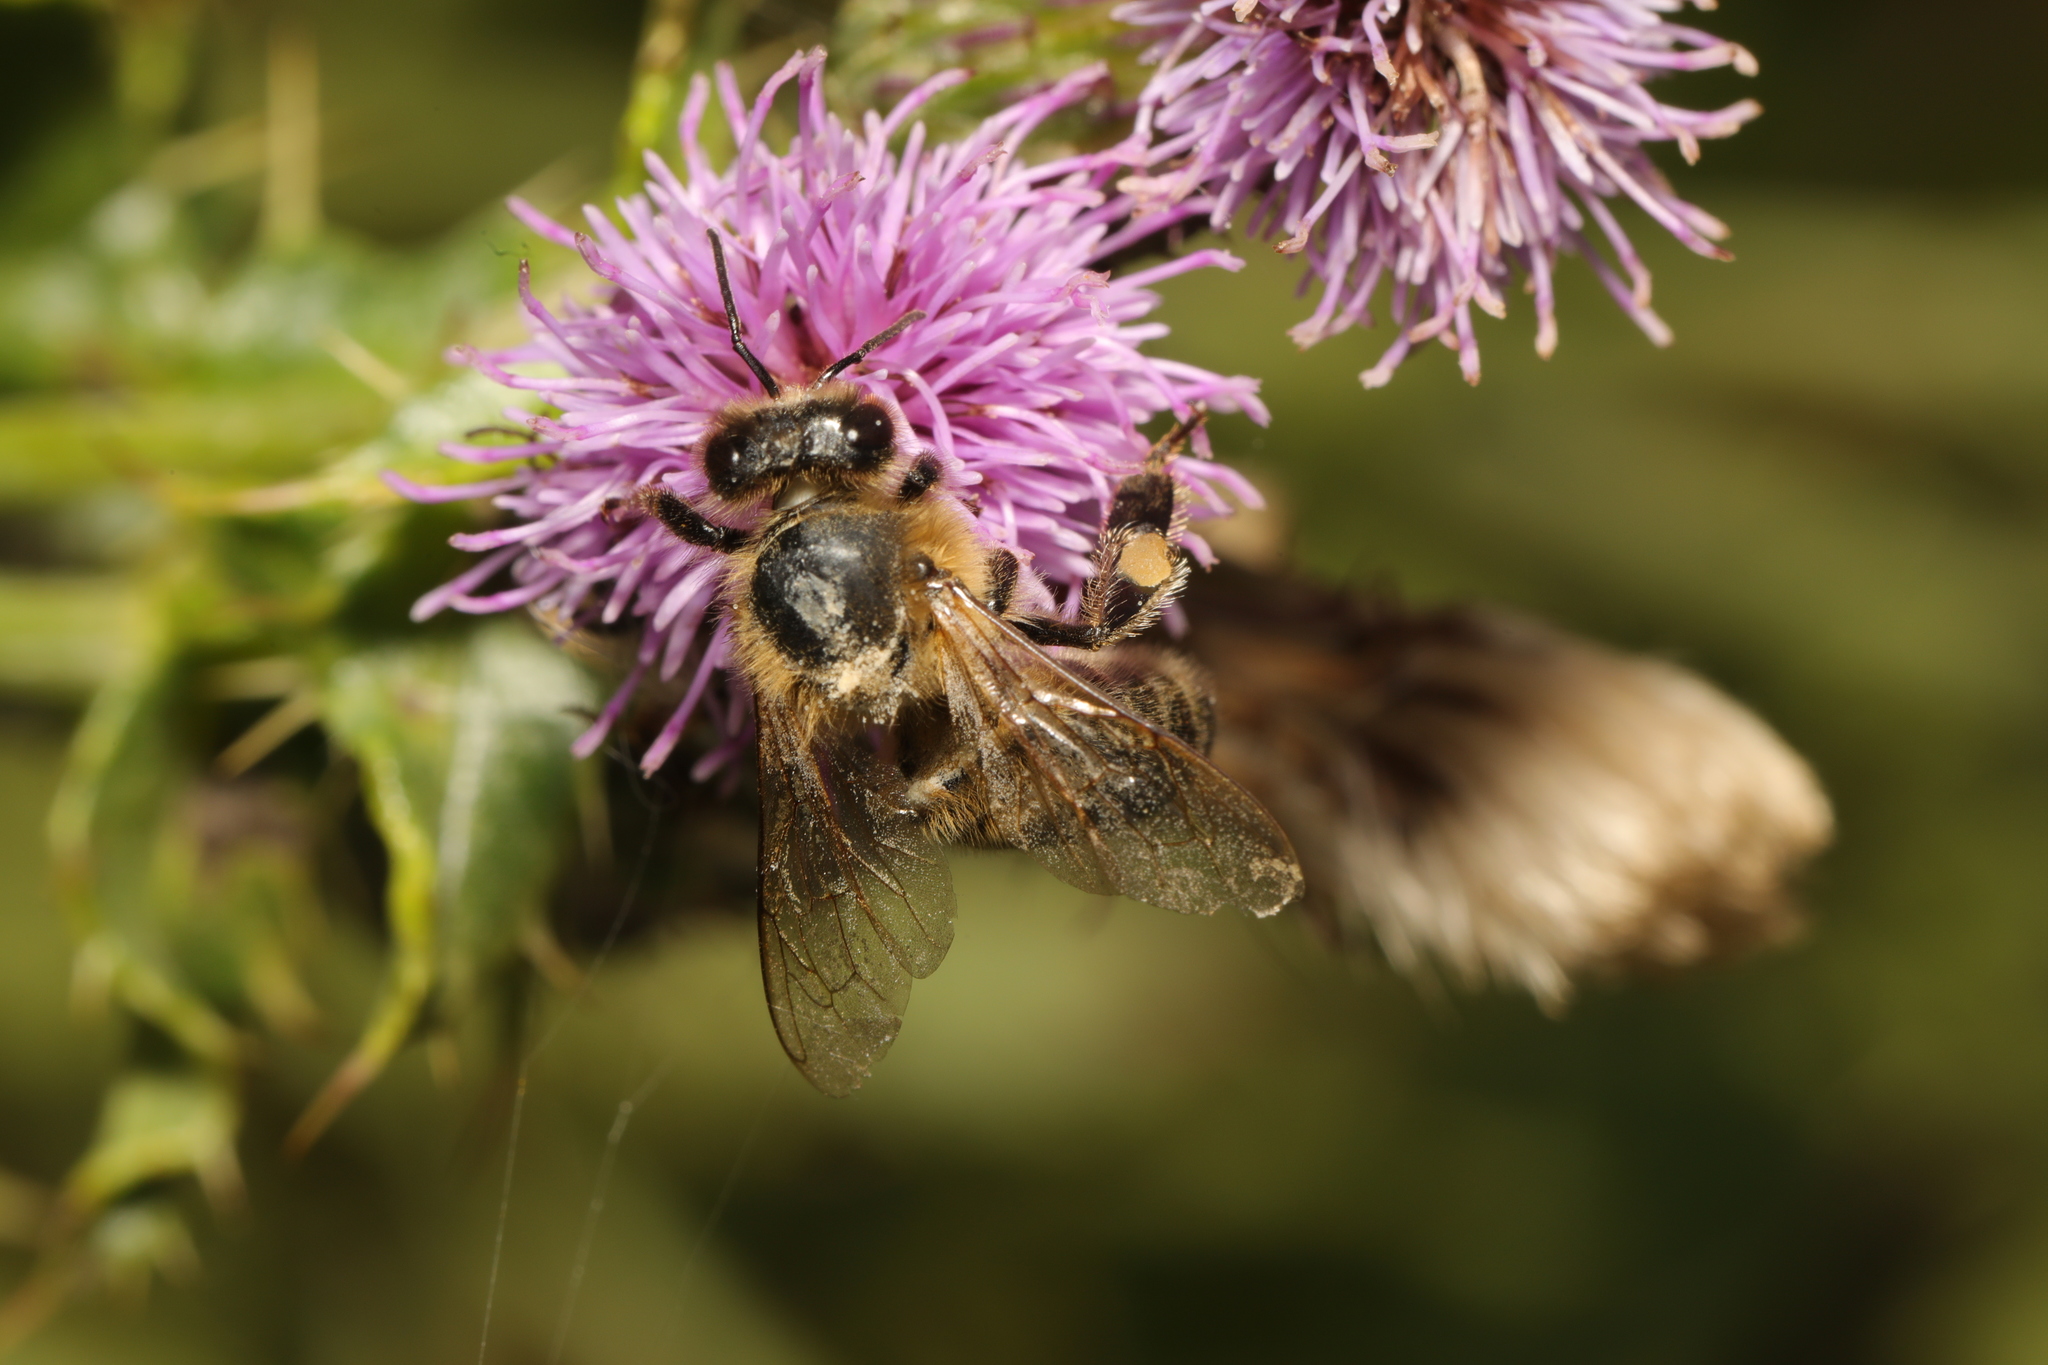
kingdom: Animalia
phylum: Arthropoda
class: Insecta
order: Hymenoptera
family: Apidae
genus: Apis
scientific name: Apis mellifera
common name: Honey bee
